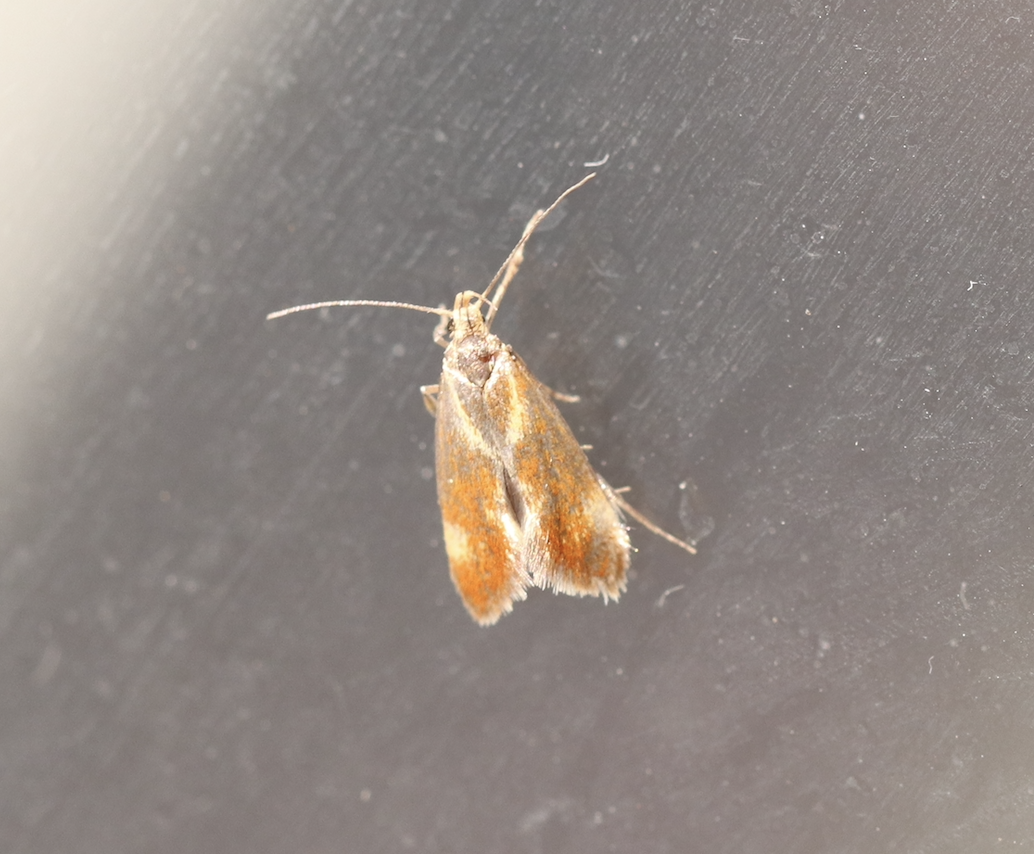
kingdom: Animalia
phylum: Arthropoda
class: Insecta
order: Lepidoptera
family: Oecophoridae
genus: Borkhausenia
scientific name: Borkhausenia italica
